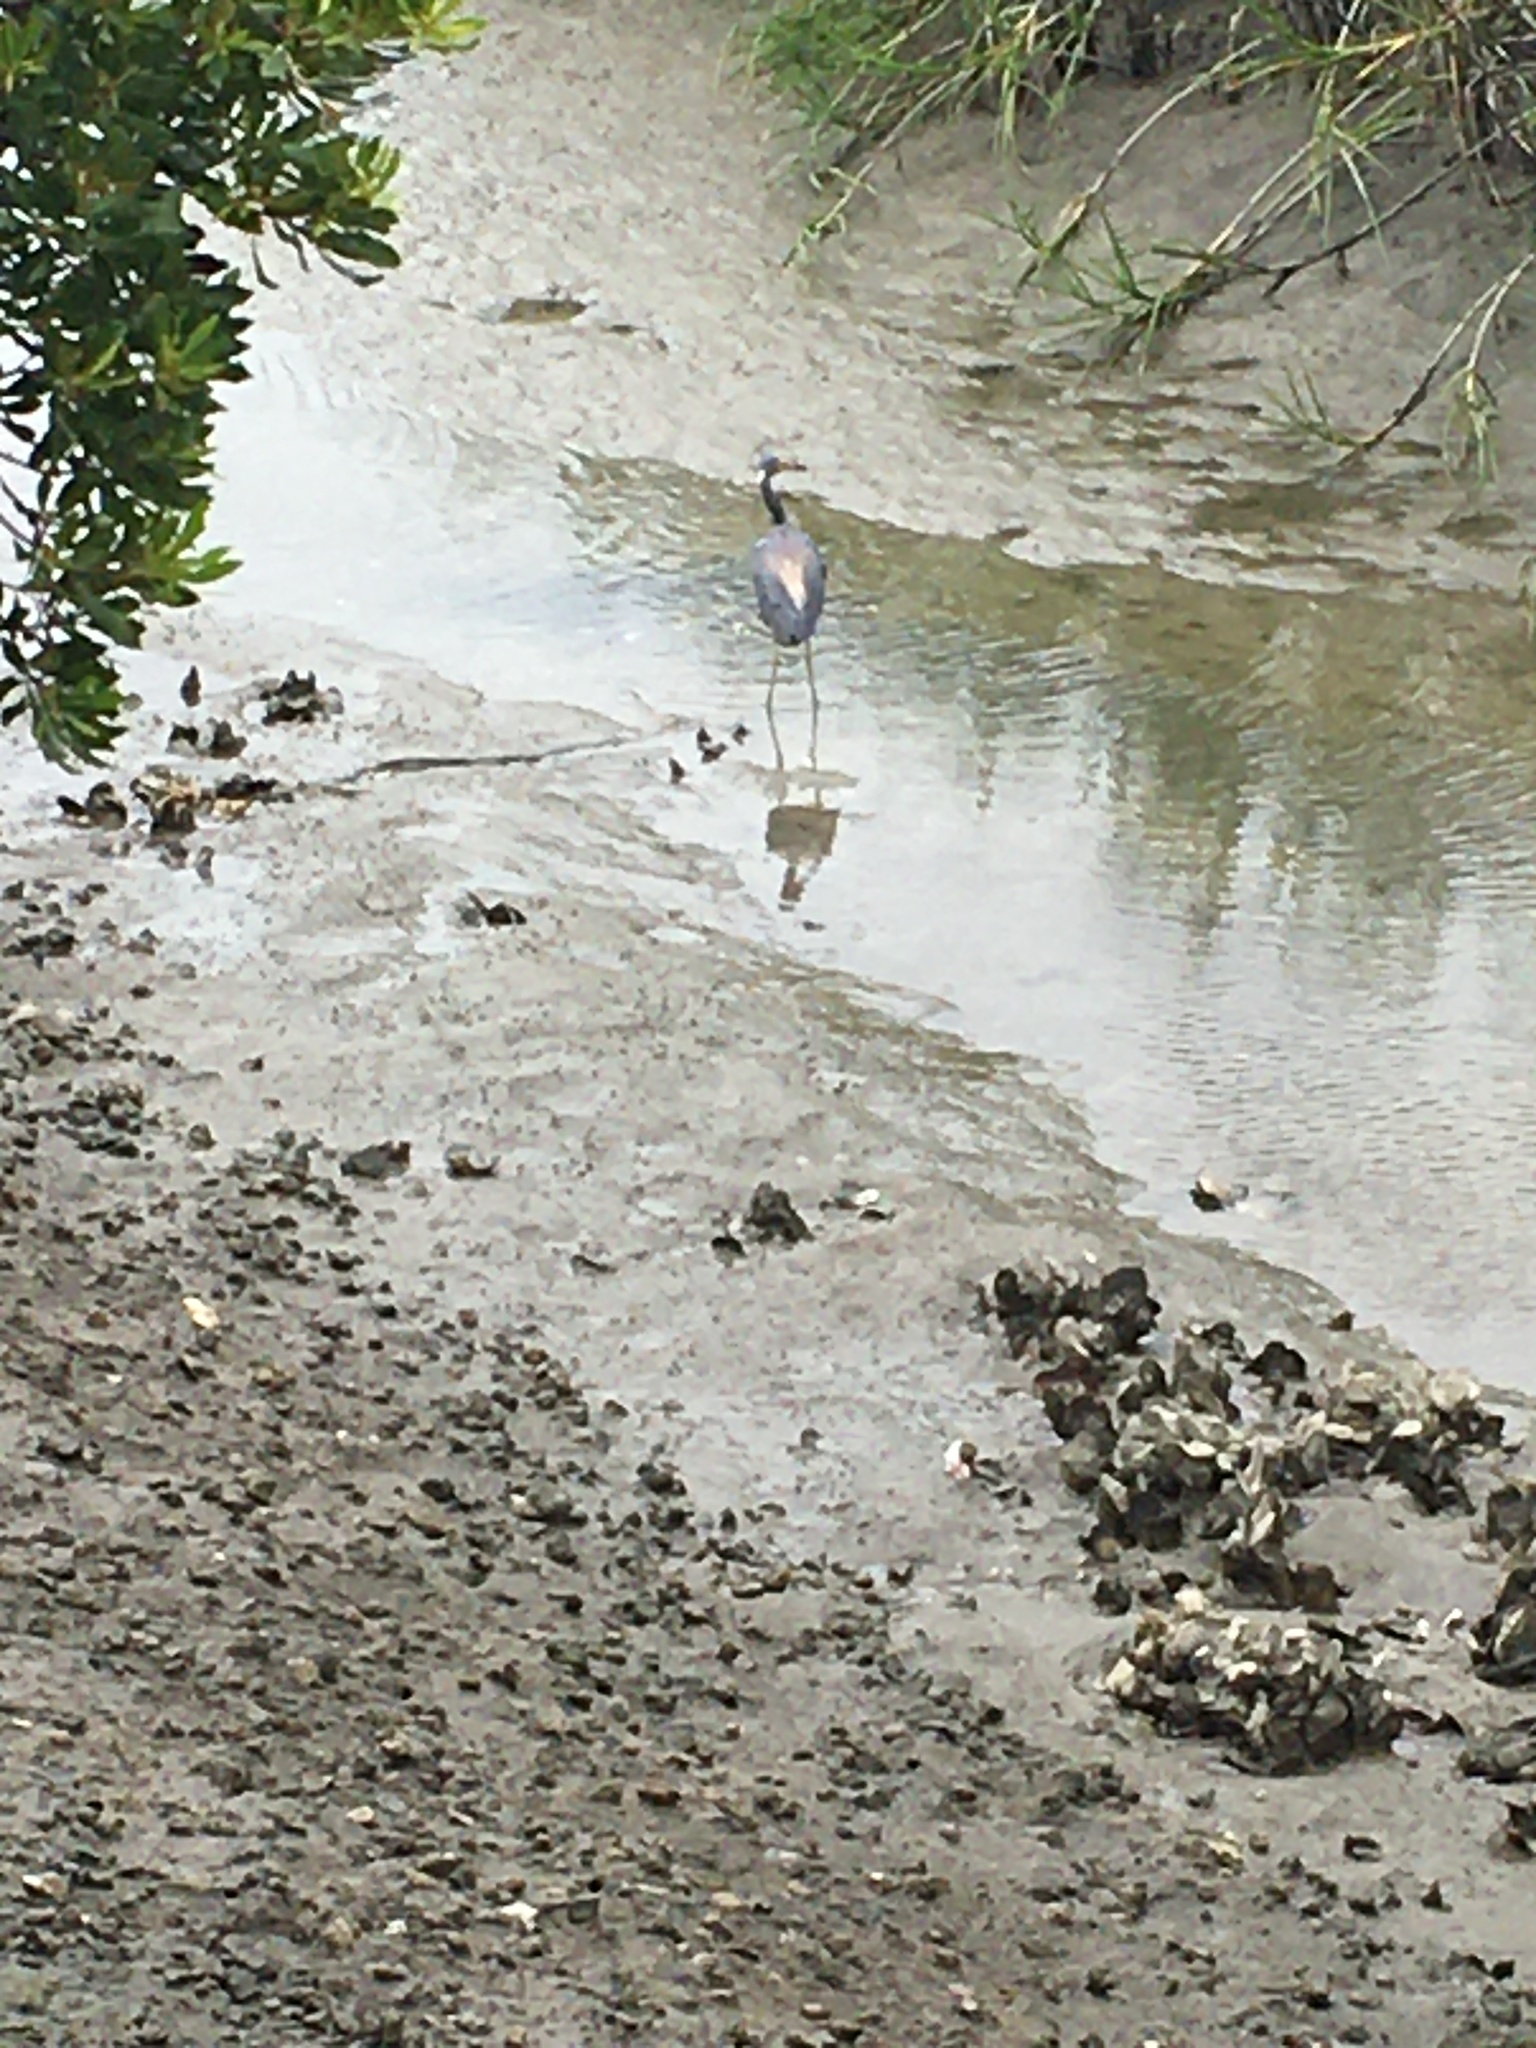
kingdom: Animalia
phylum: Chordata
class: Aves
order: Pelecaniformes
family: Ardeidae
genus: Egretta
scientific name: Egretta tricolor
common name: Tricolored heron
